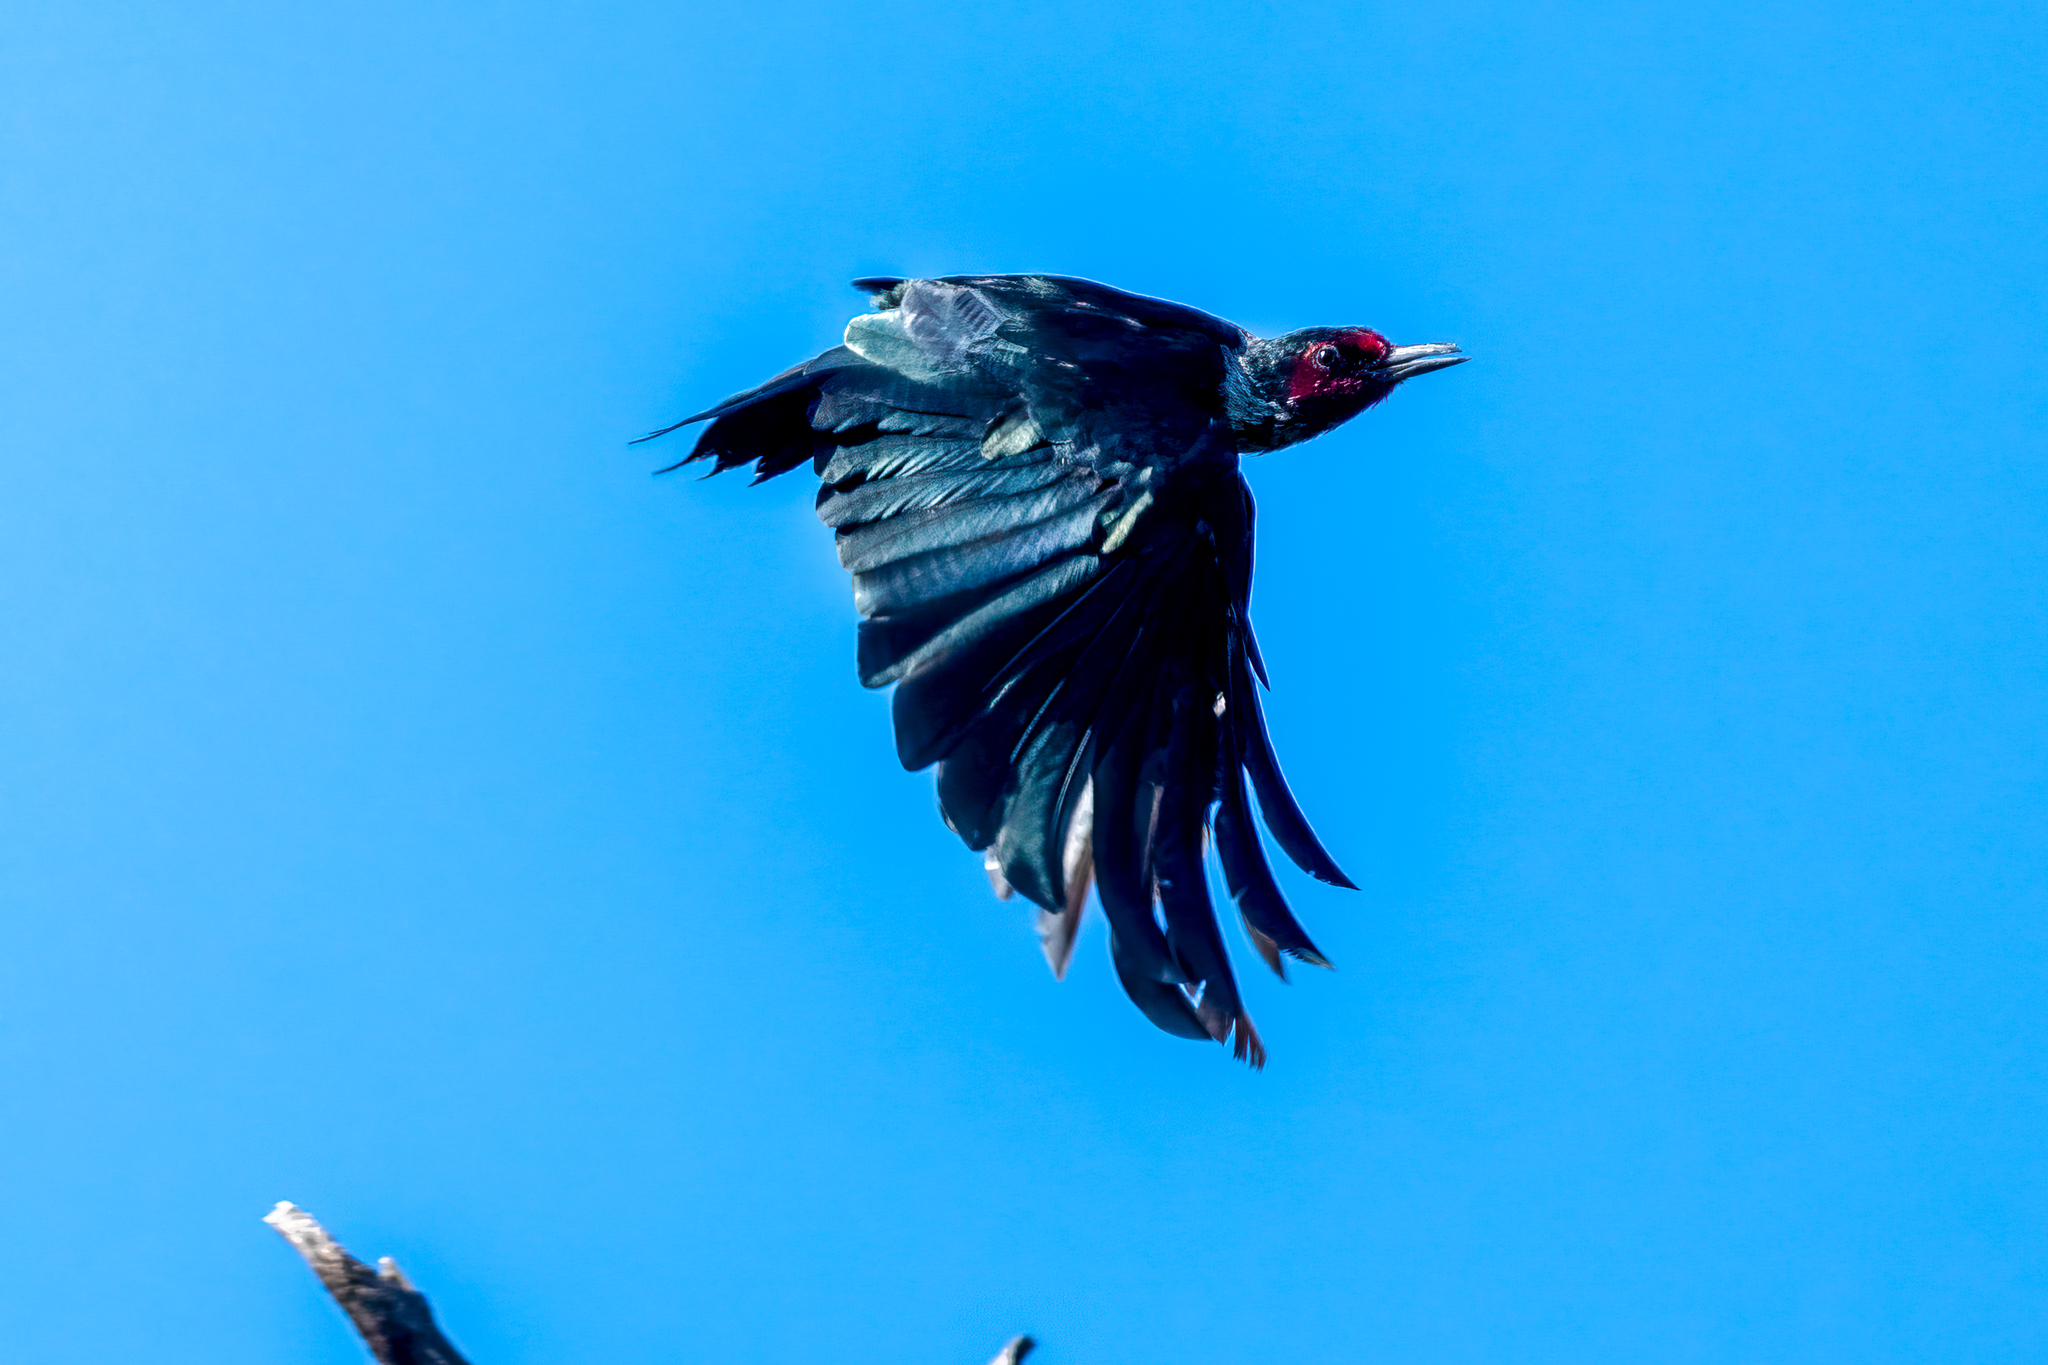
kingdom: Animalia
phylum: Chordata
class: Aves
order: Piciformes
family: Picidae
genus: Melanerpes
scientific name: Melanerpes lewis
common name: Lewis's woodpecker
